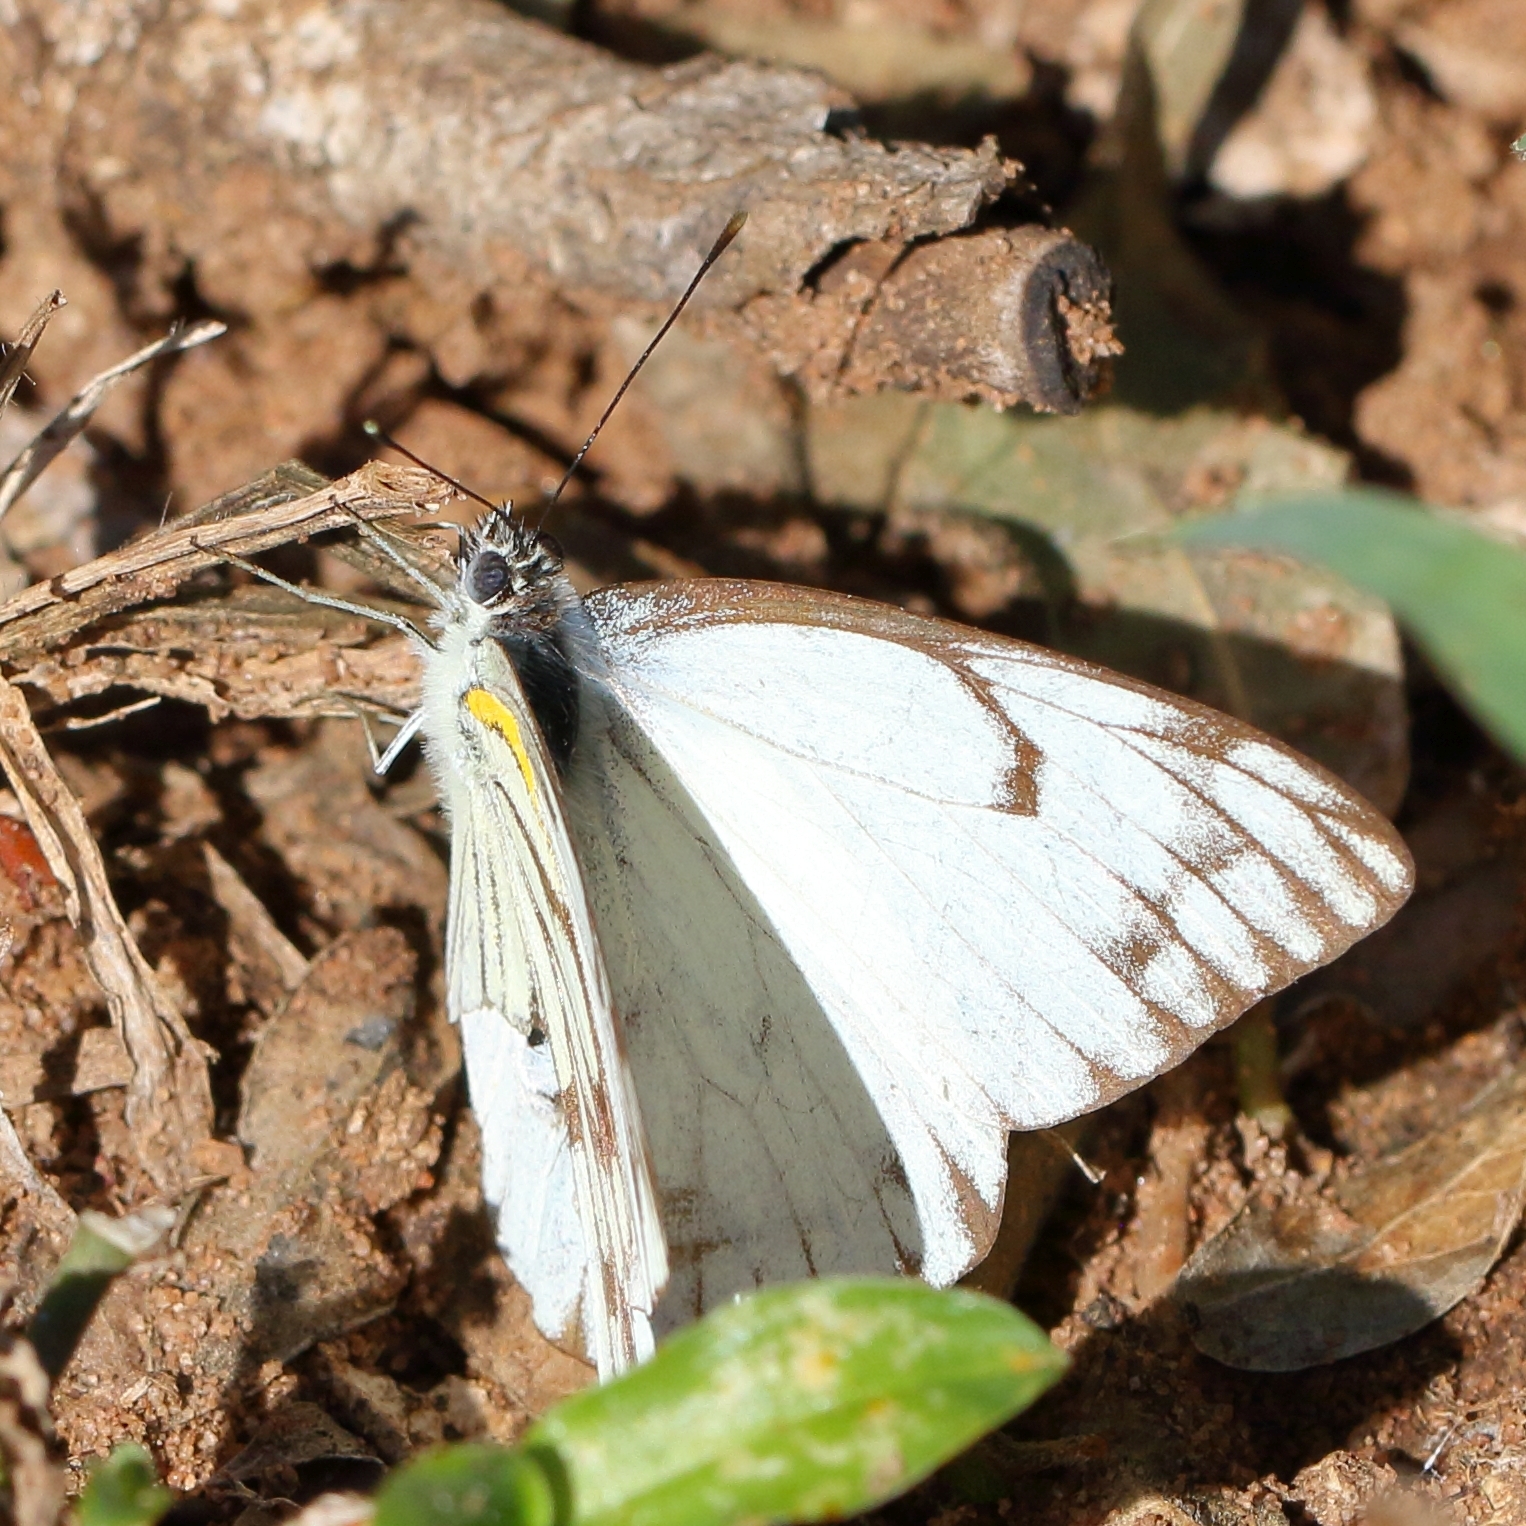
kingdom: Animalia
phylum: Arthropoda
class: Insecta
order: Lepidoptera
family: Pieridae
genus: Belenois
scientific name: Belenois gidica
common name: Pointed caper white
